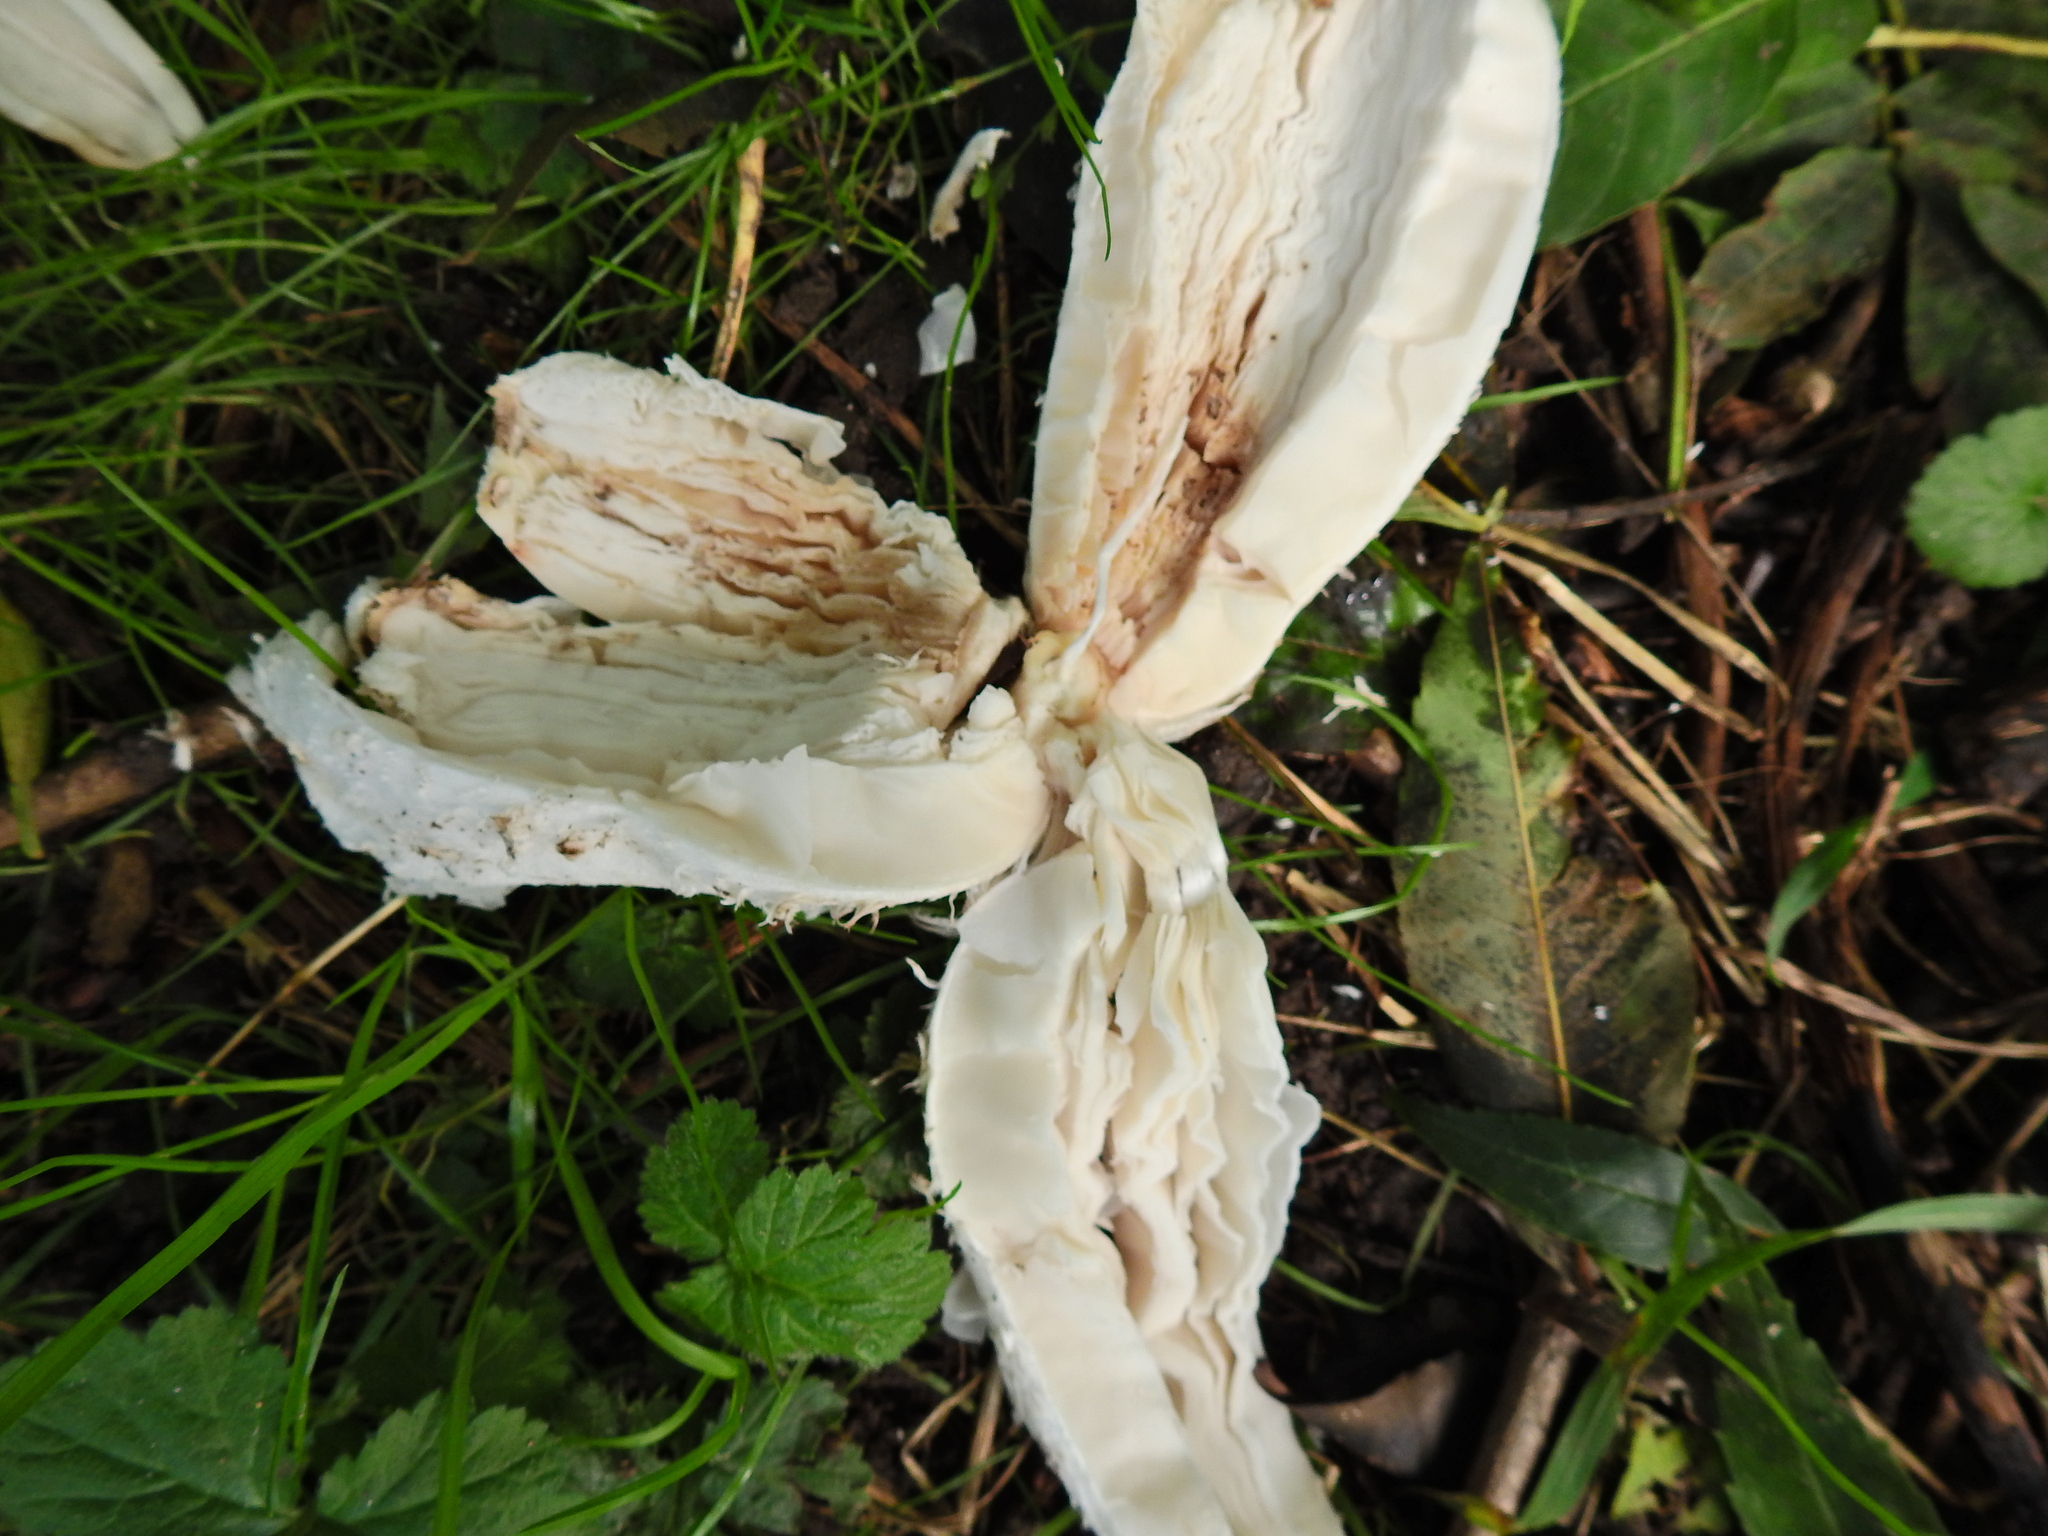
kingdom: Fungi
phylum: Basidiomycota
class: Agaricomycetes
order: Agaricales
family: Agaricaceae
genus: Coprinus
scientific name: Coprinus comatus
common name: Lawyer's wig
